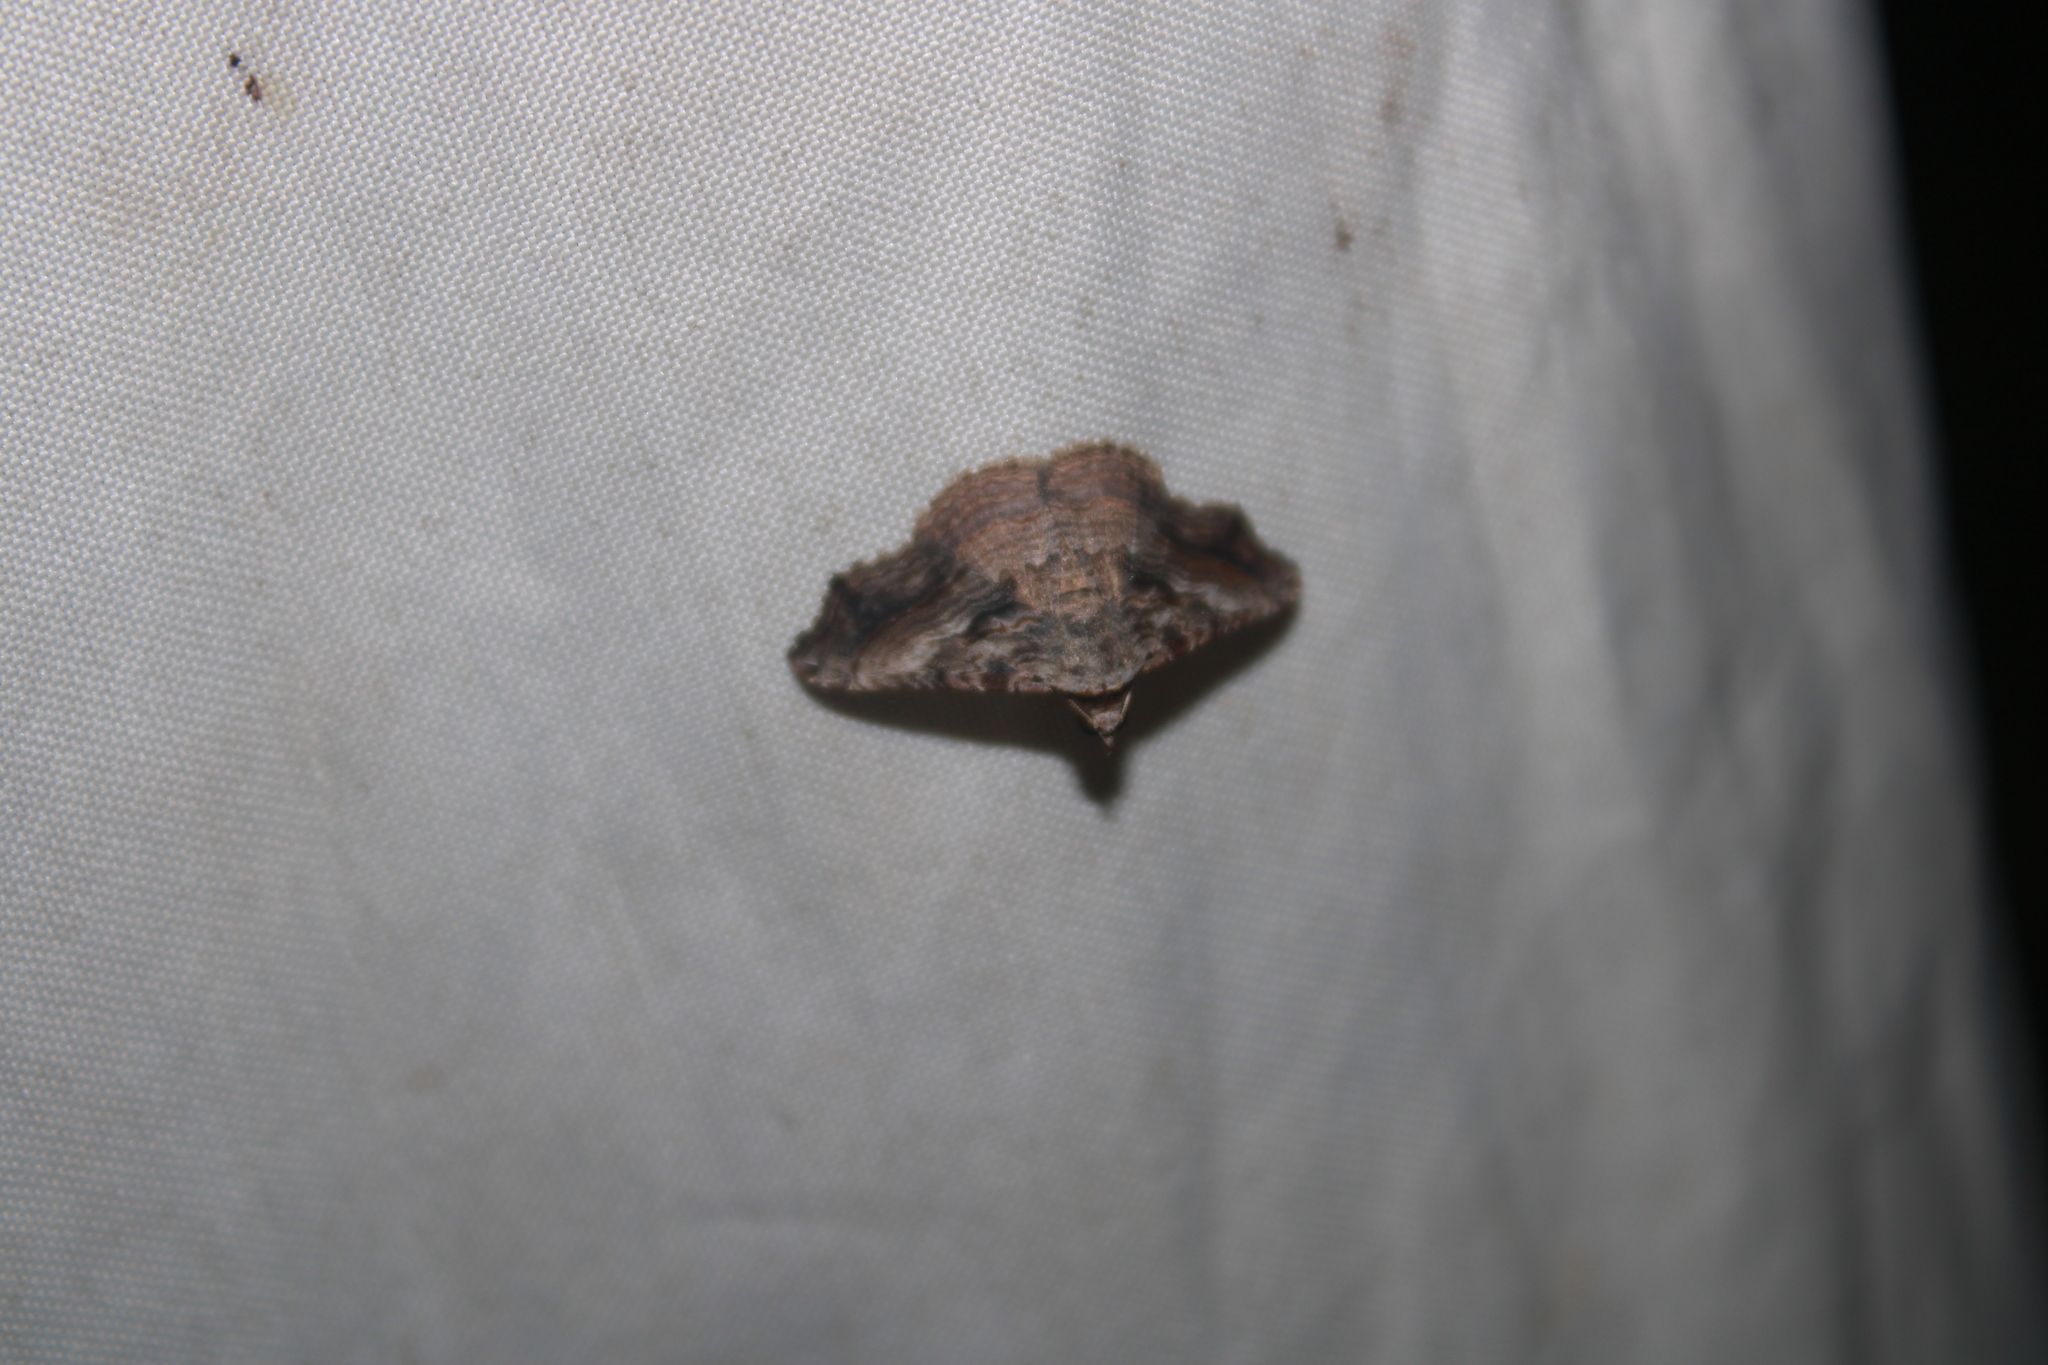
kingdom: Animalia
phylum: Arthropoda
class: Insecta
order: Lepidoptera
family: Erebidae
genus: Tyrissa
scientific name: Tyrissa multilinea
